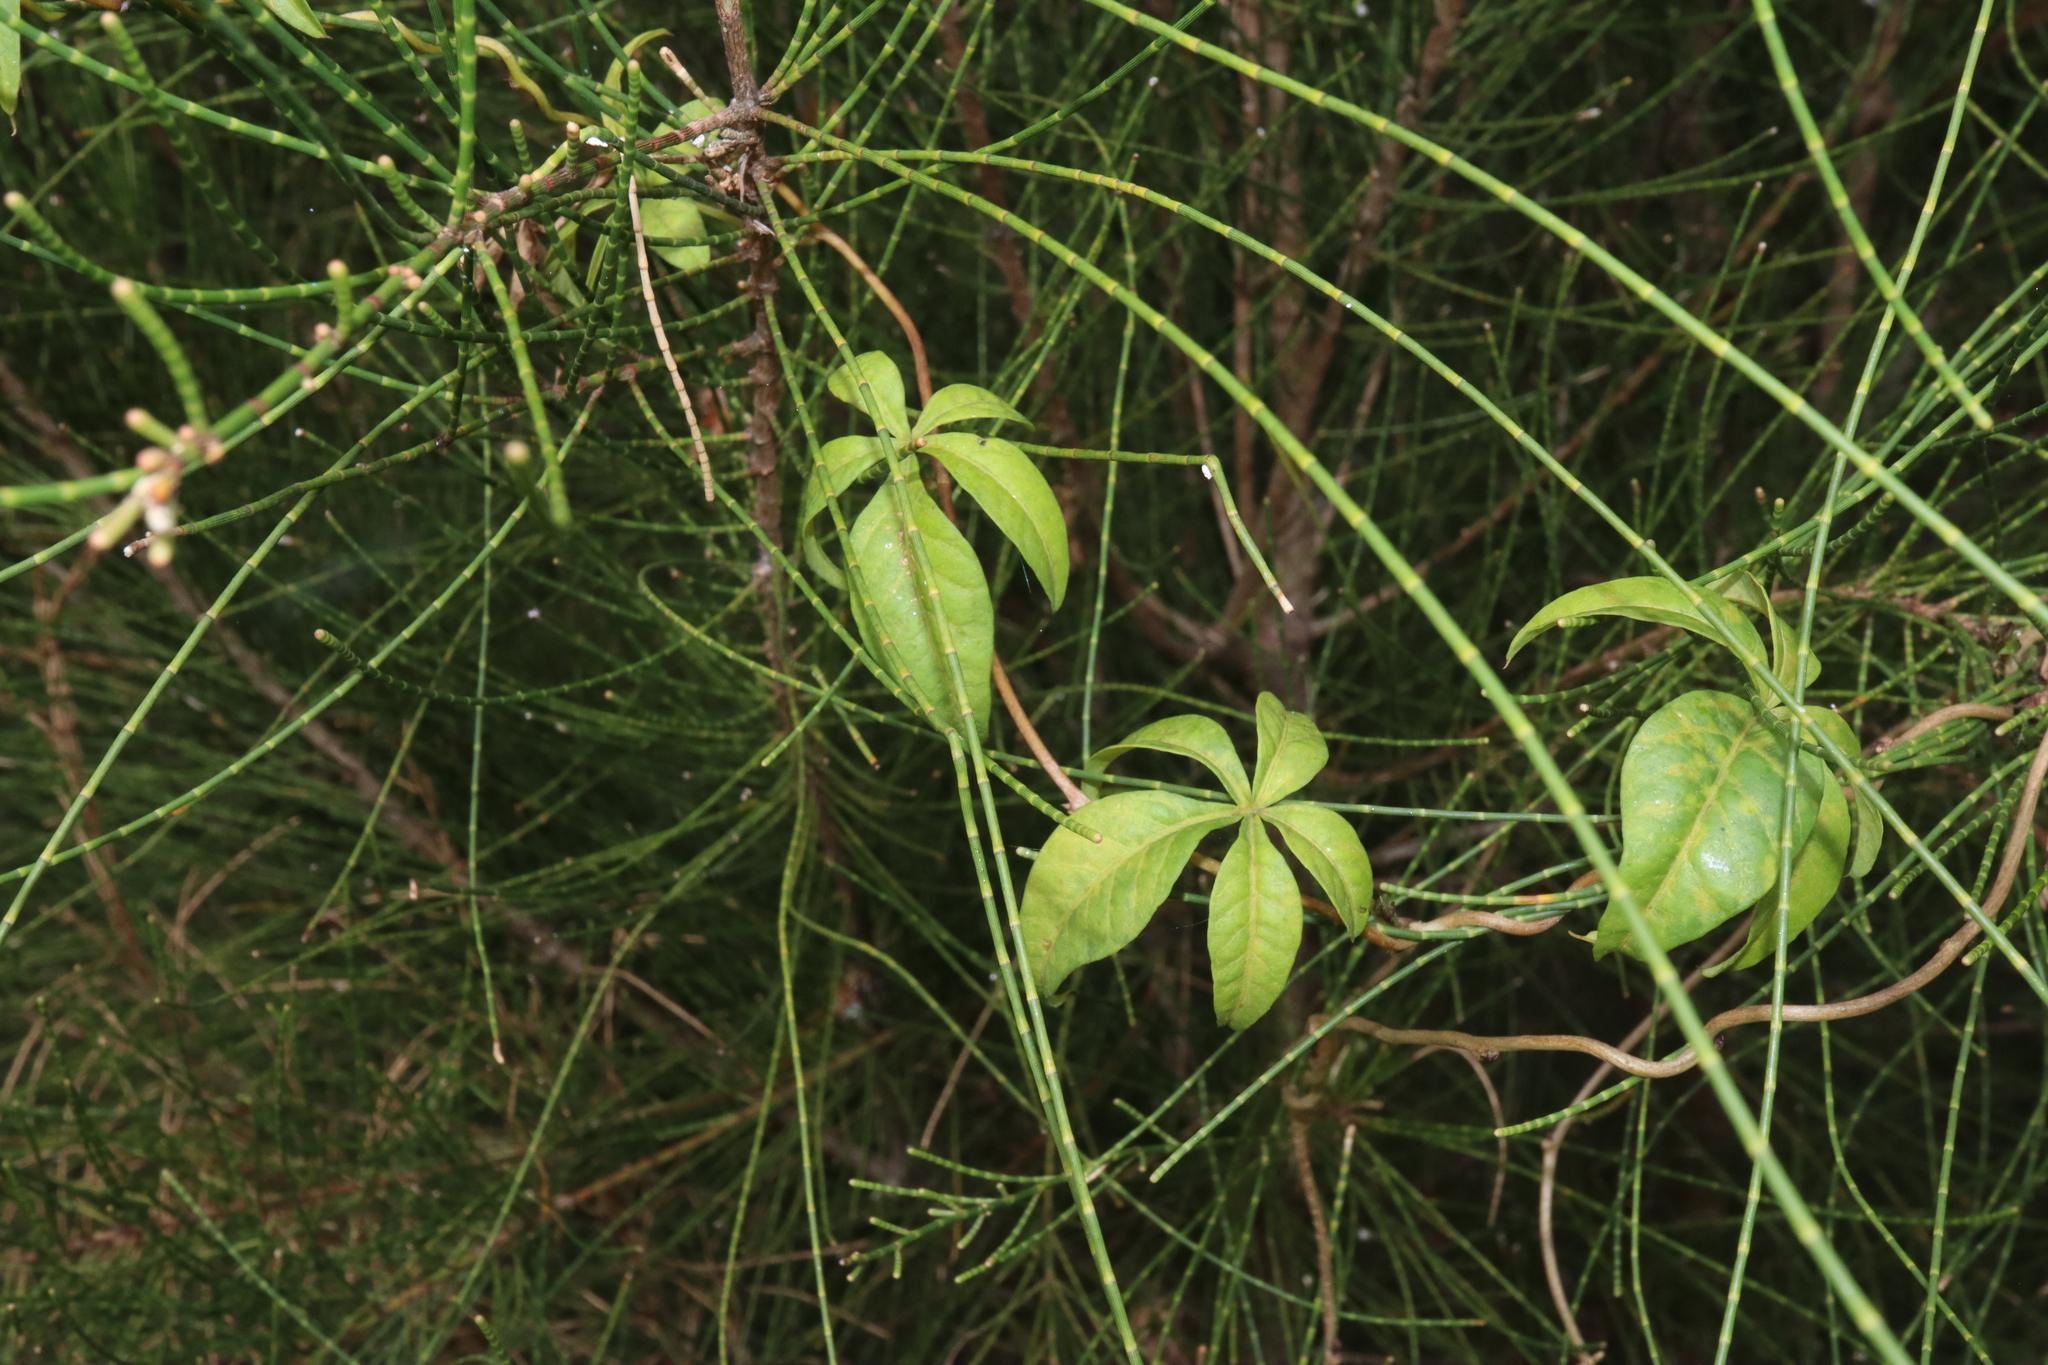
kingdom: Plantae
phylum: Tracheophyta
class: Magnoliopsida
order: Solanales
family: Convolvulaceae
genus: Ipomoea
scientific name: Ipomoea cairica
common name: Mile a minute vine
